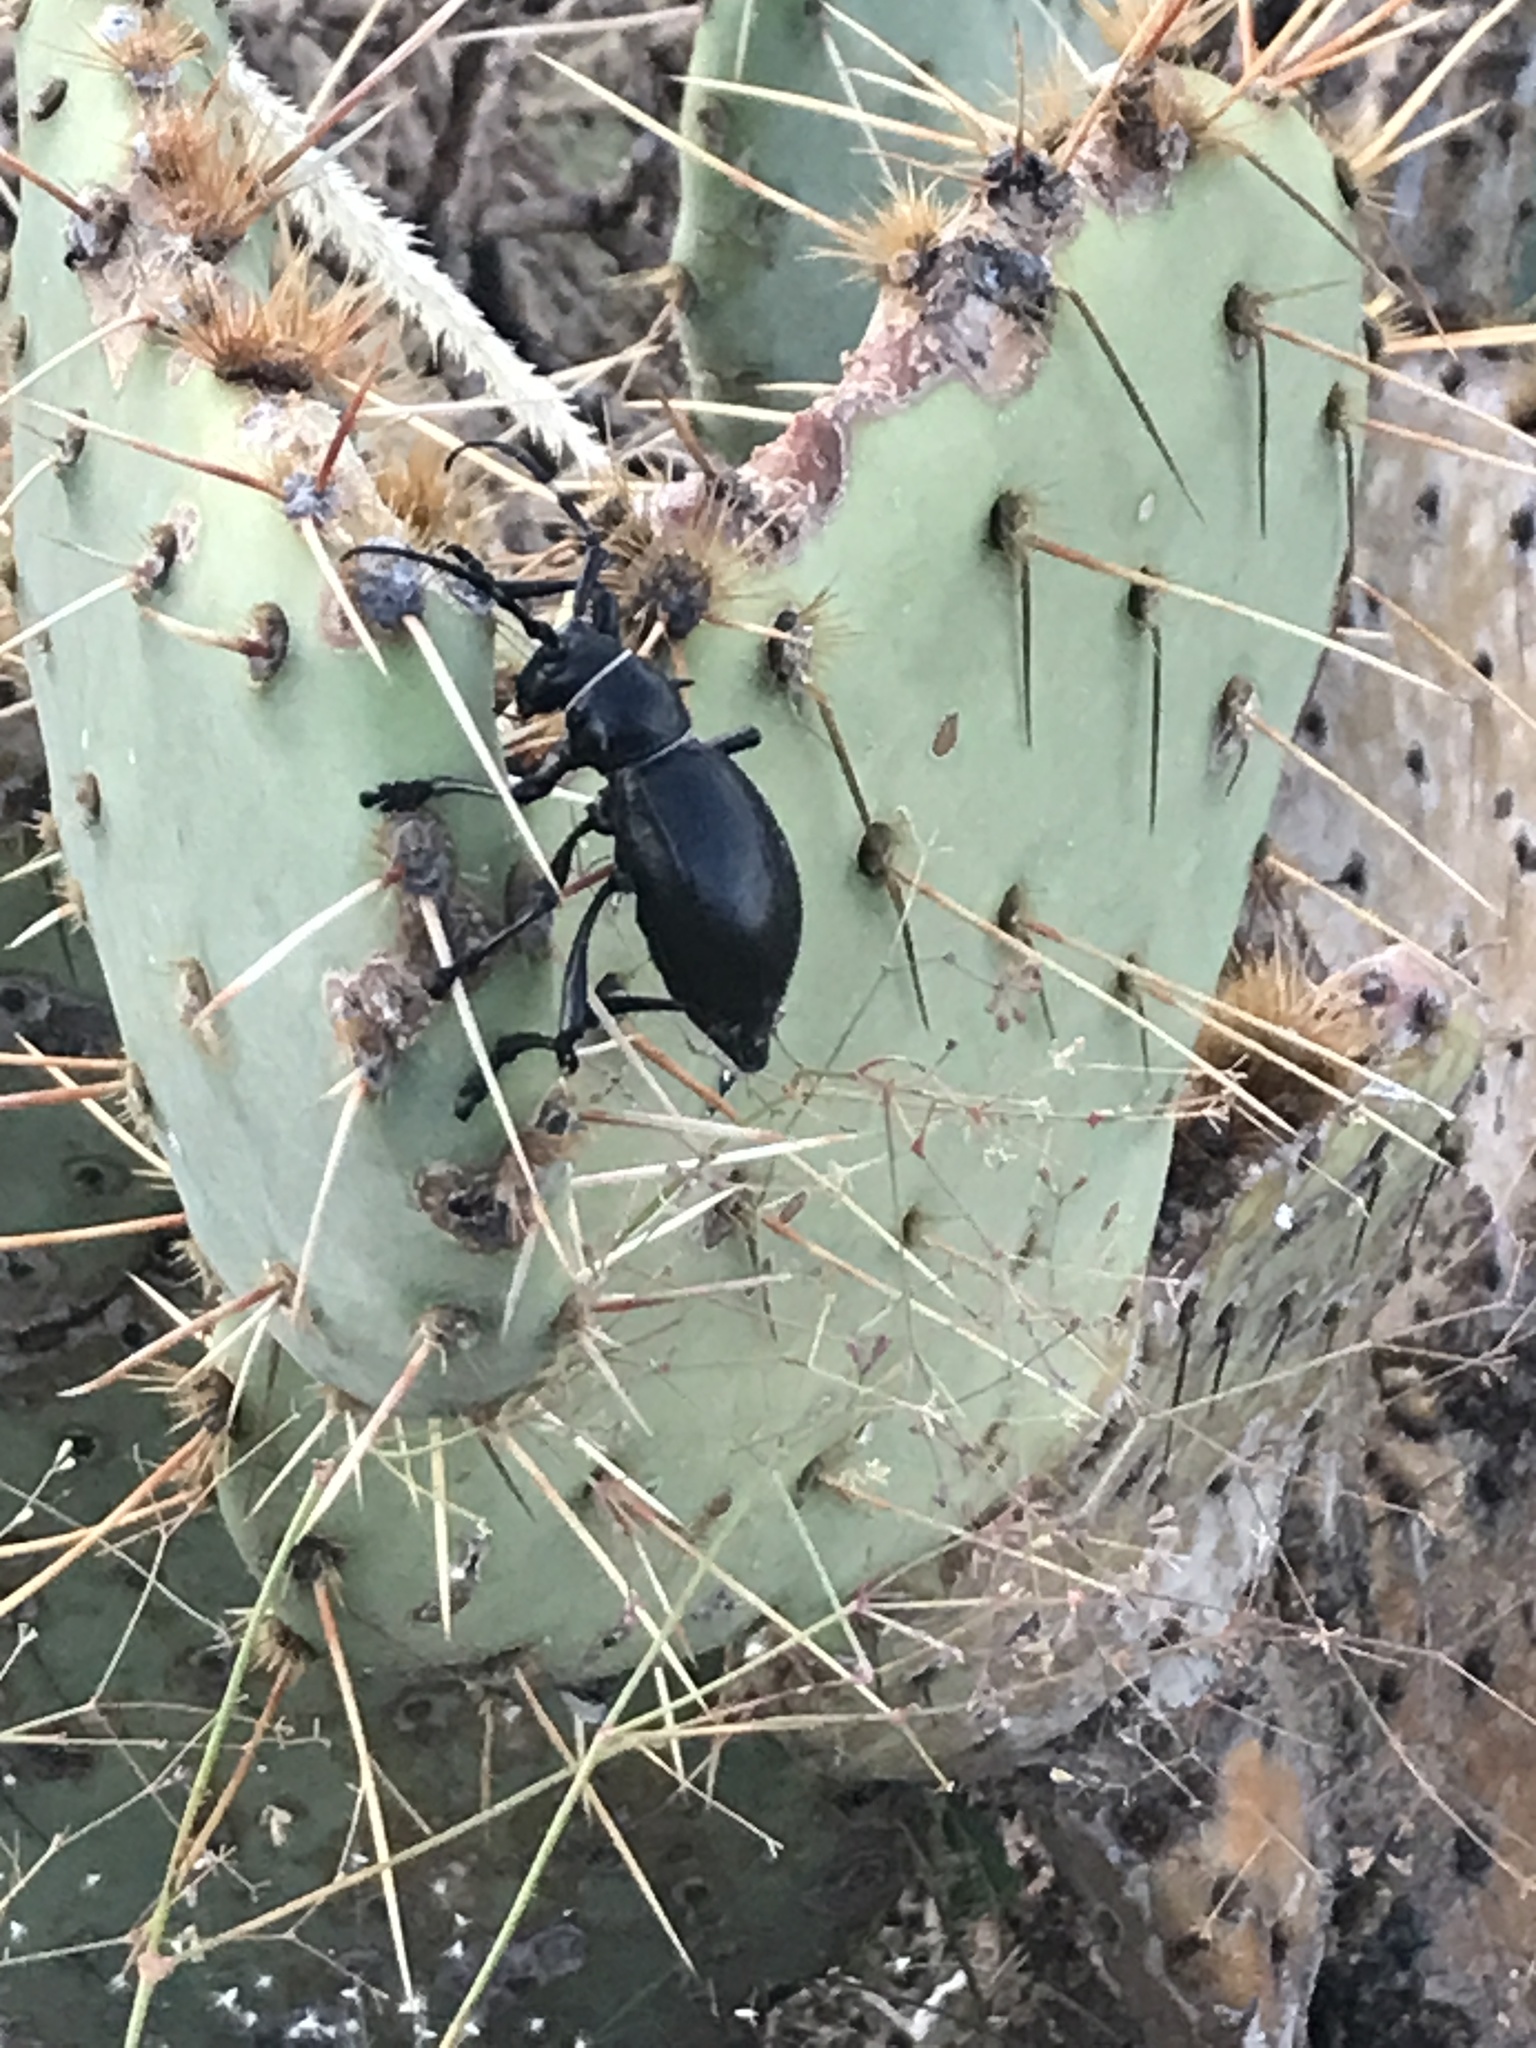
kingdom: Animalia
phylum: Arthropoda
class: Insecta
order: Coleoptera
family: Cerambycidae
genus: Moneilema
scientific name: Moneilema gigas
